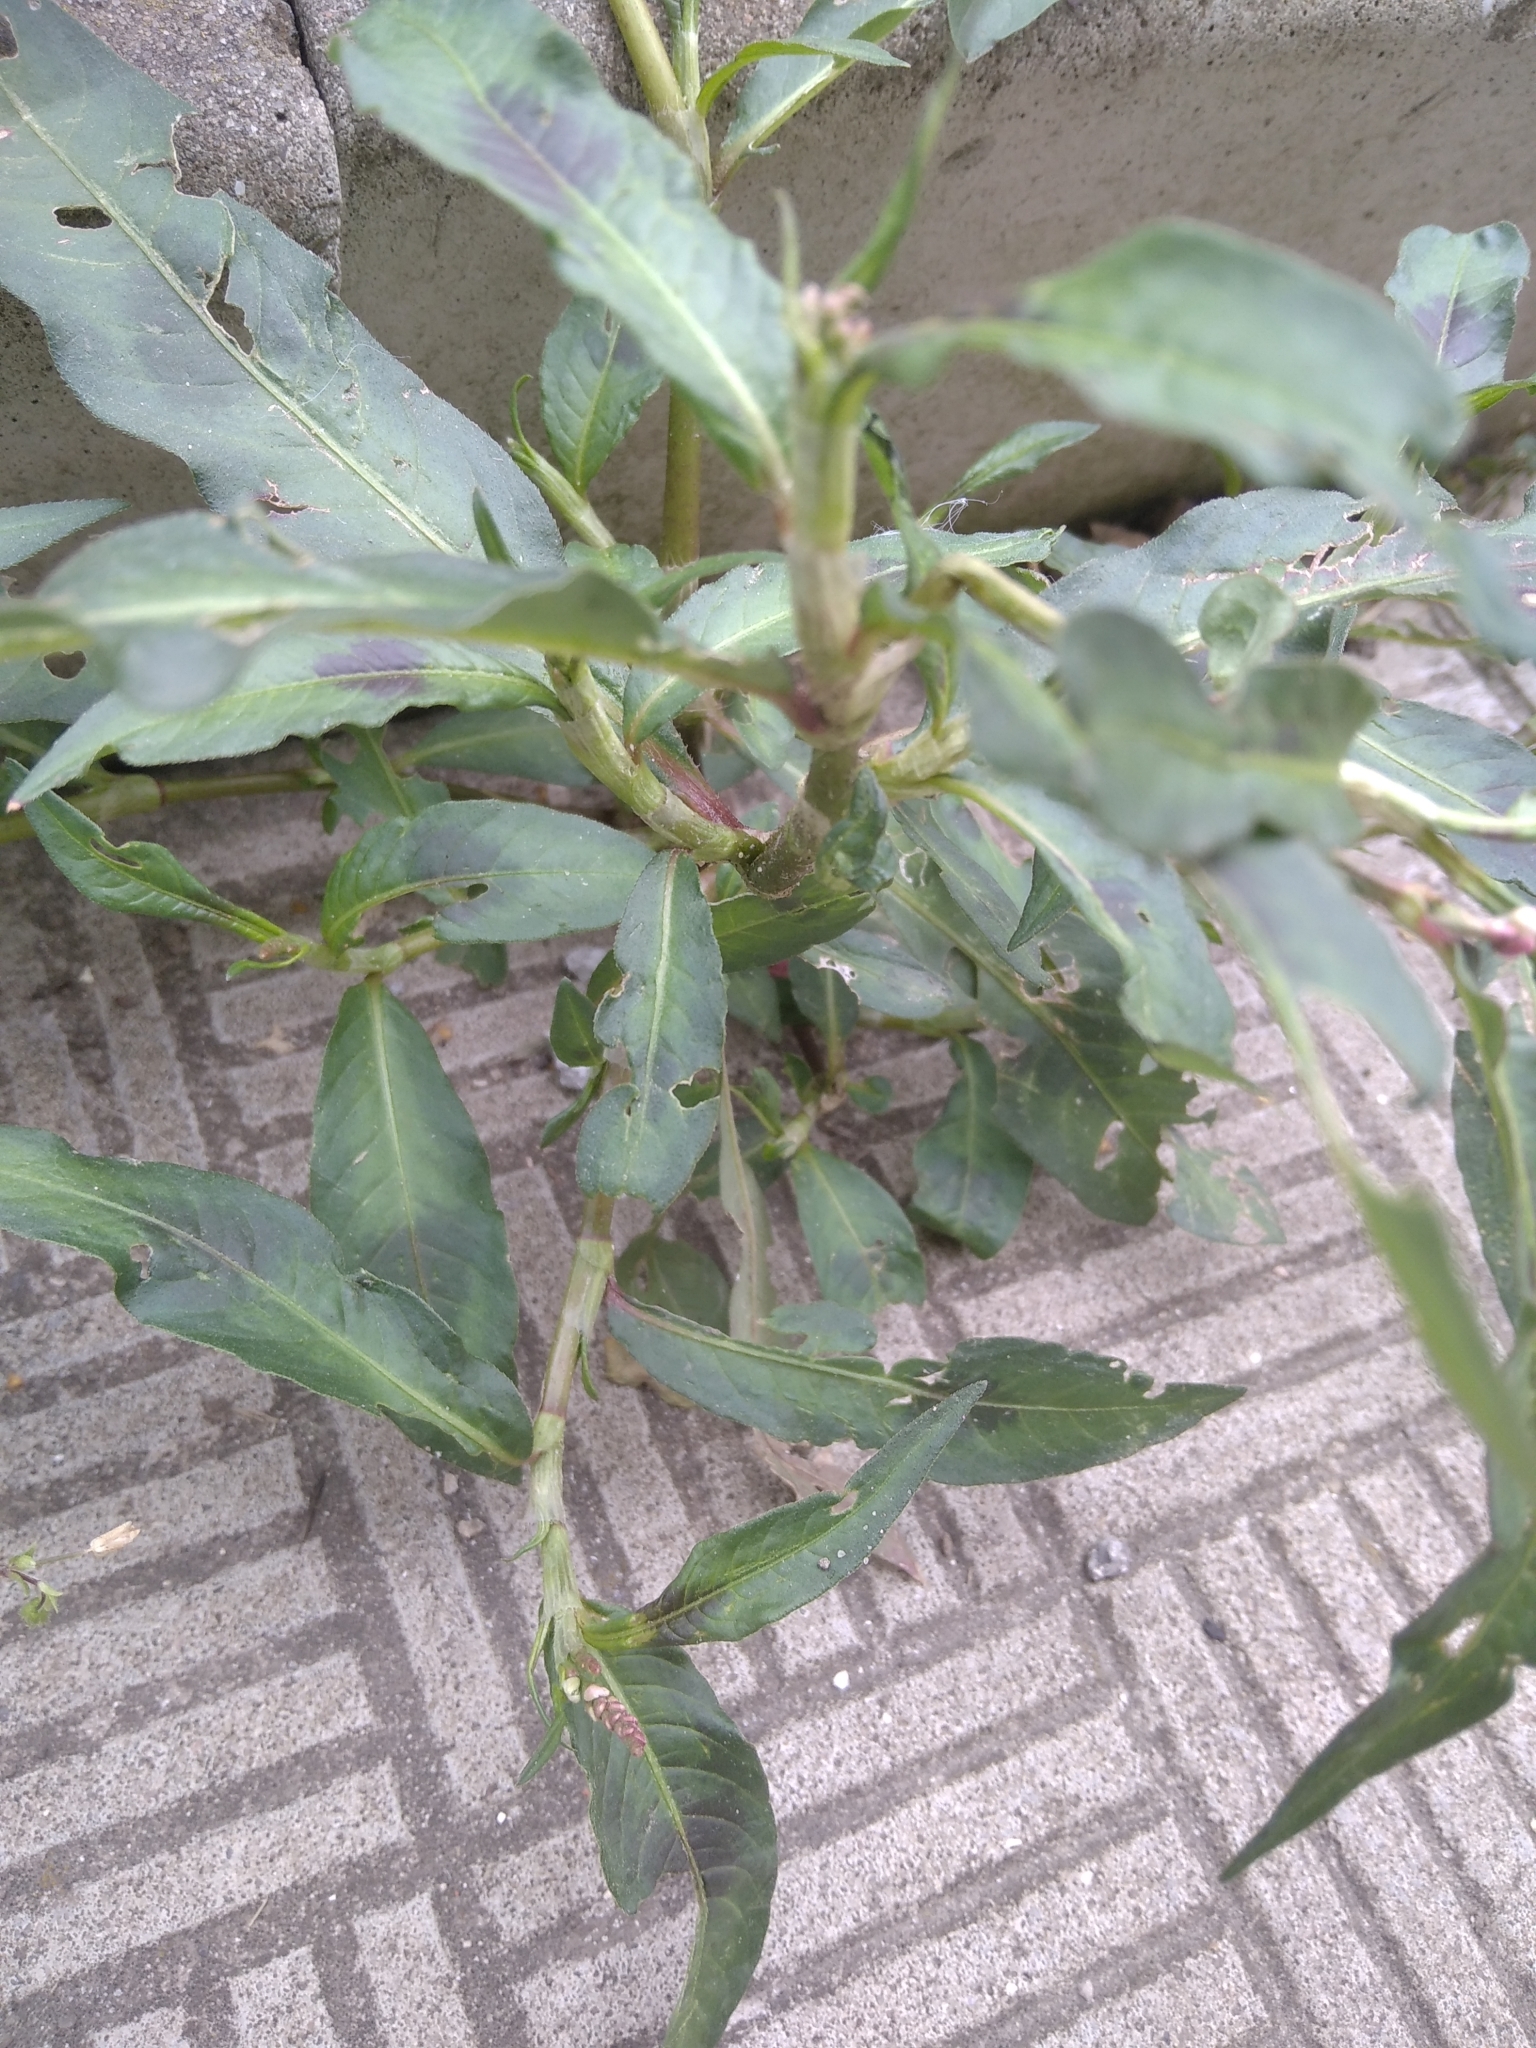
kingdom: Plantae
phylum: Tracheophyta
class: Magnoliopsida
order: Caryophyllales
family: Polygonaceae
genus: Persicaria
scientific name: Persicaria maculosa
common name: Redshank
